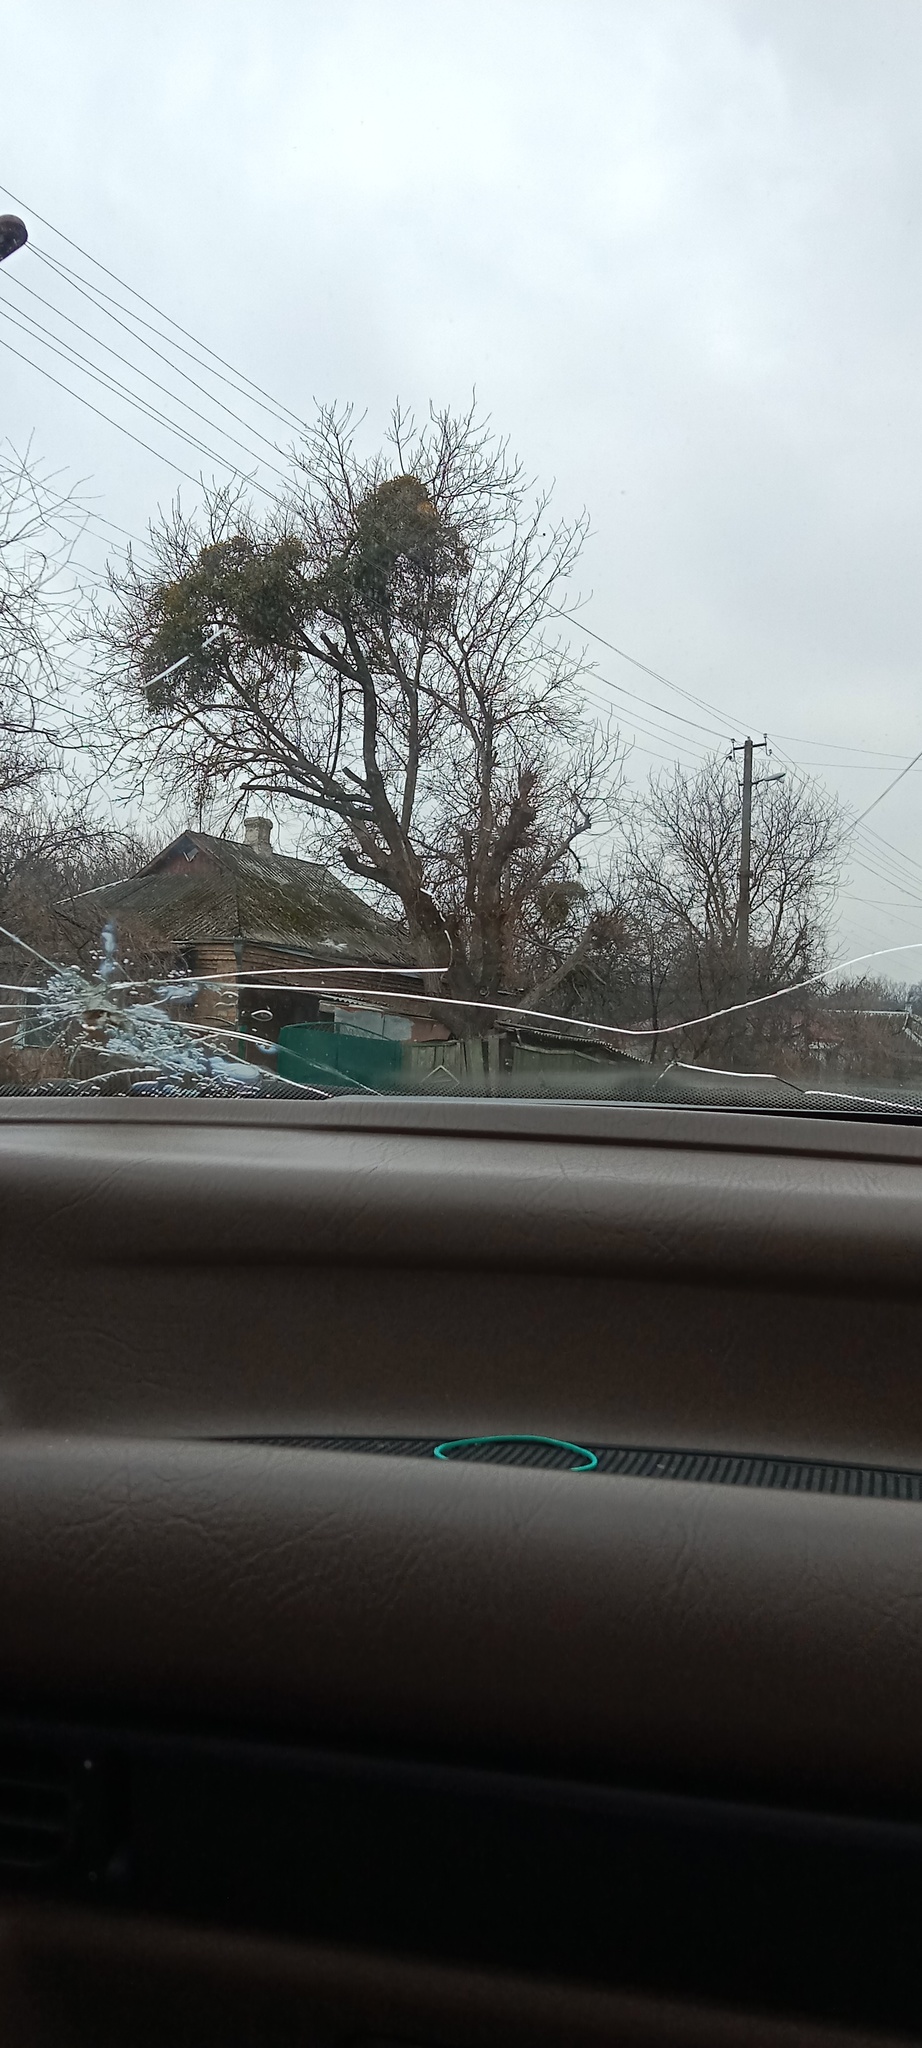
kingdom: Plantae
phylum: Tracheophyta
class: Magnoliopsida
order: Santalales
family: Viscaceae
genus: Viscum
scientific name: Viscum album
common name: Mistletoe
